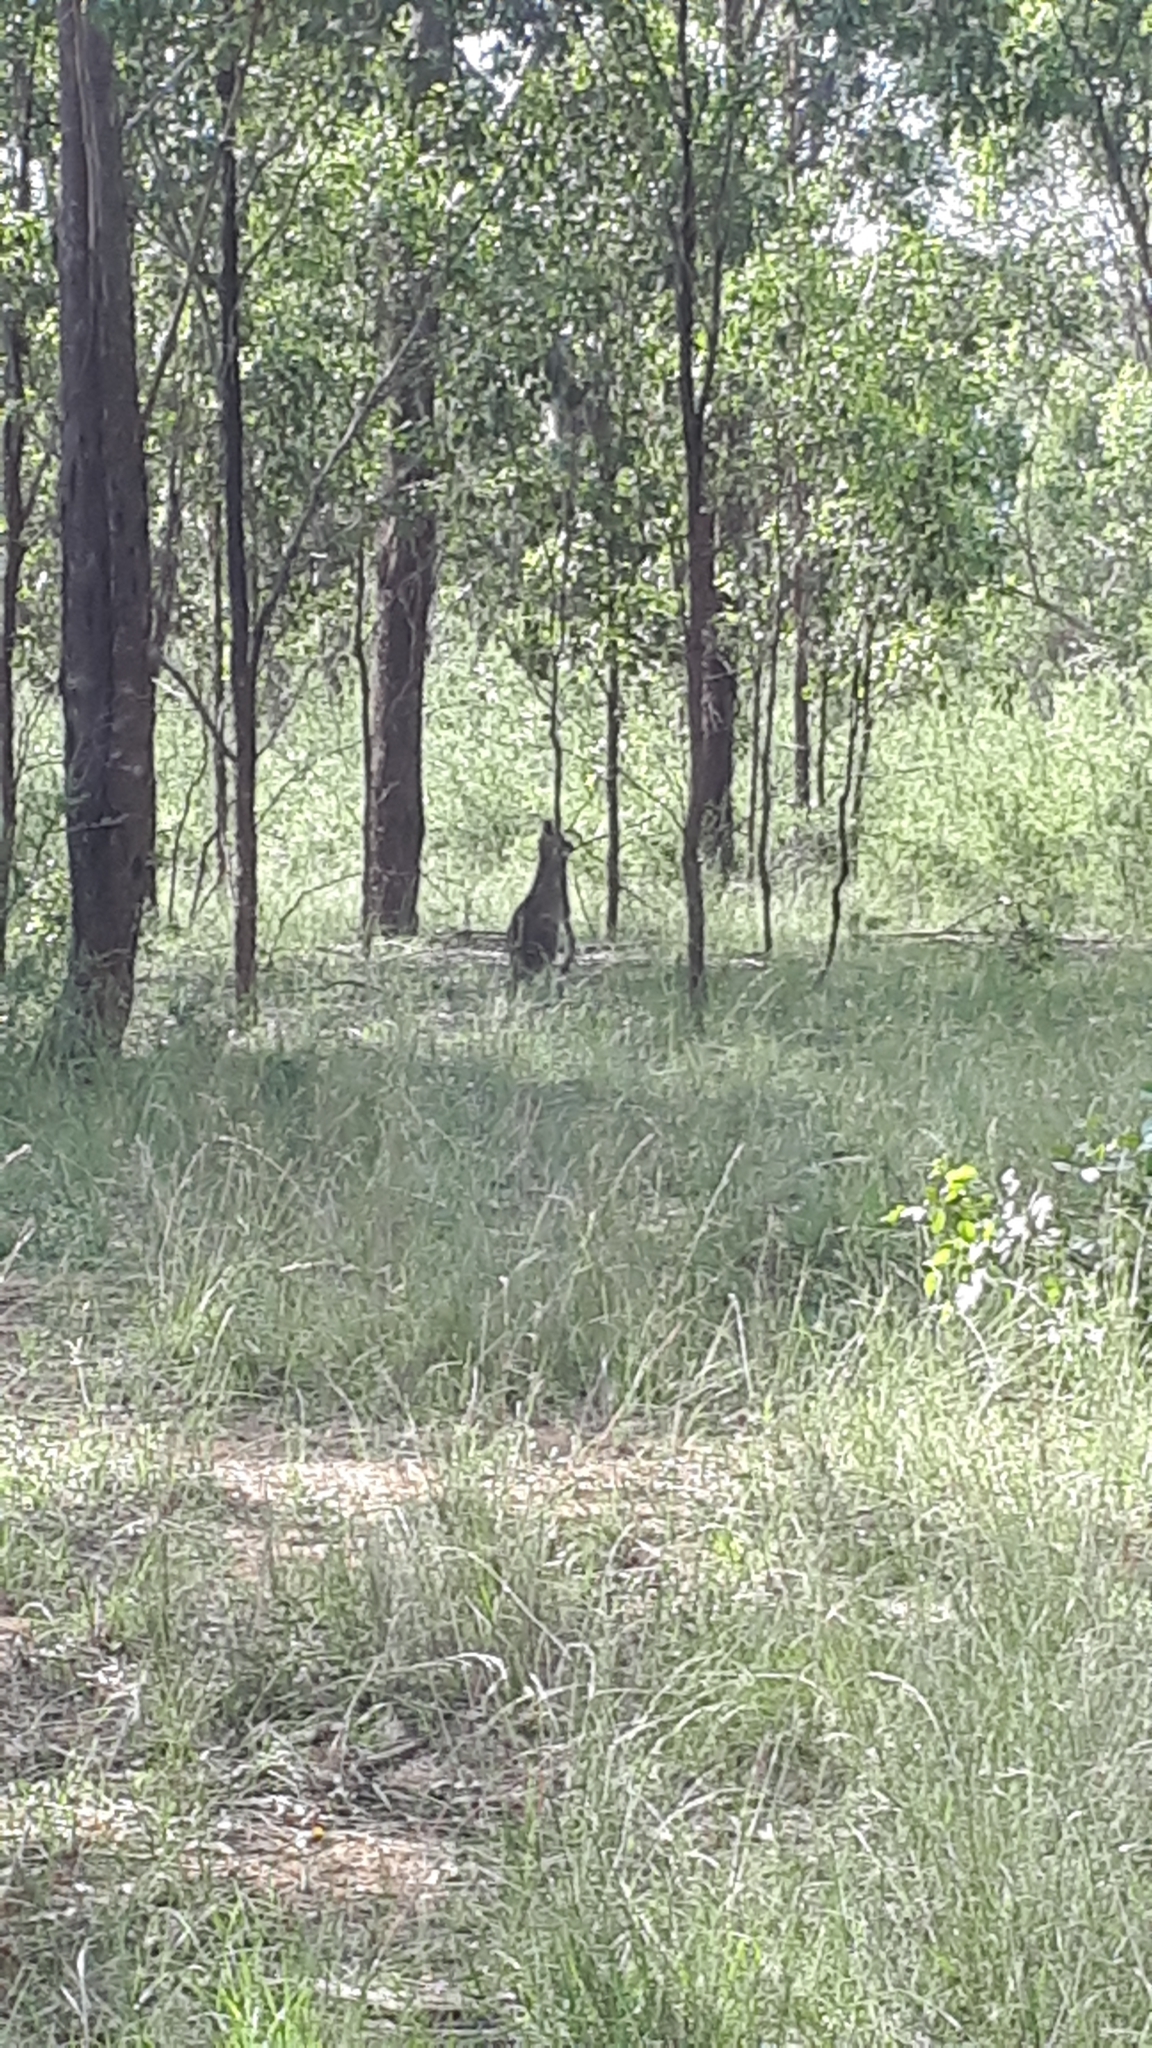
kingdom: Animalia
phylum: Chordata
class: Mammalia
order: Diprotodontia
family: Macropodidae
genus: Macropus
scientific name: Macropus giganteus
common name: Eastern grey kangaroo
